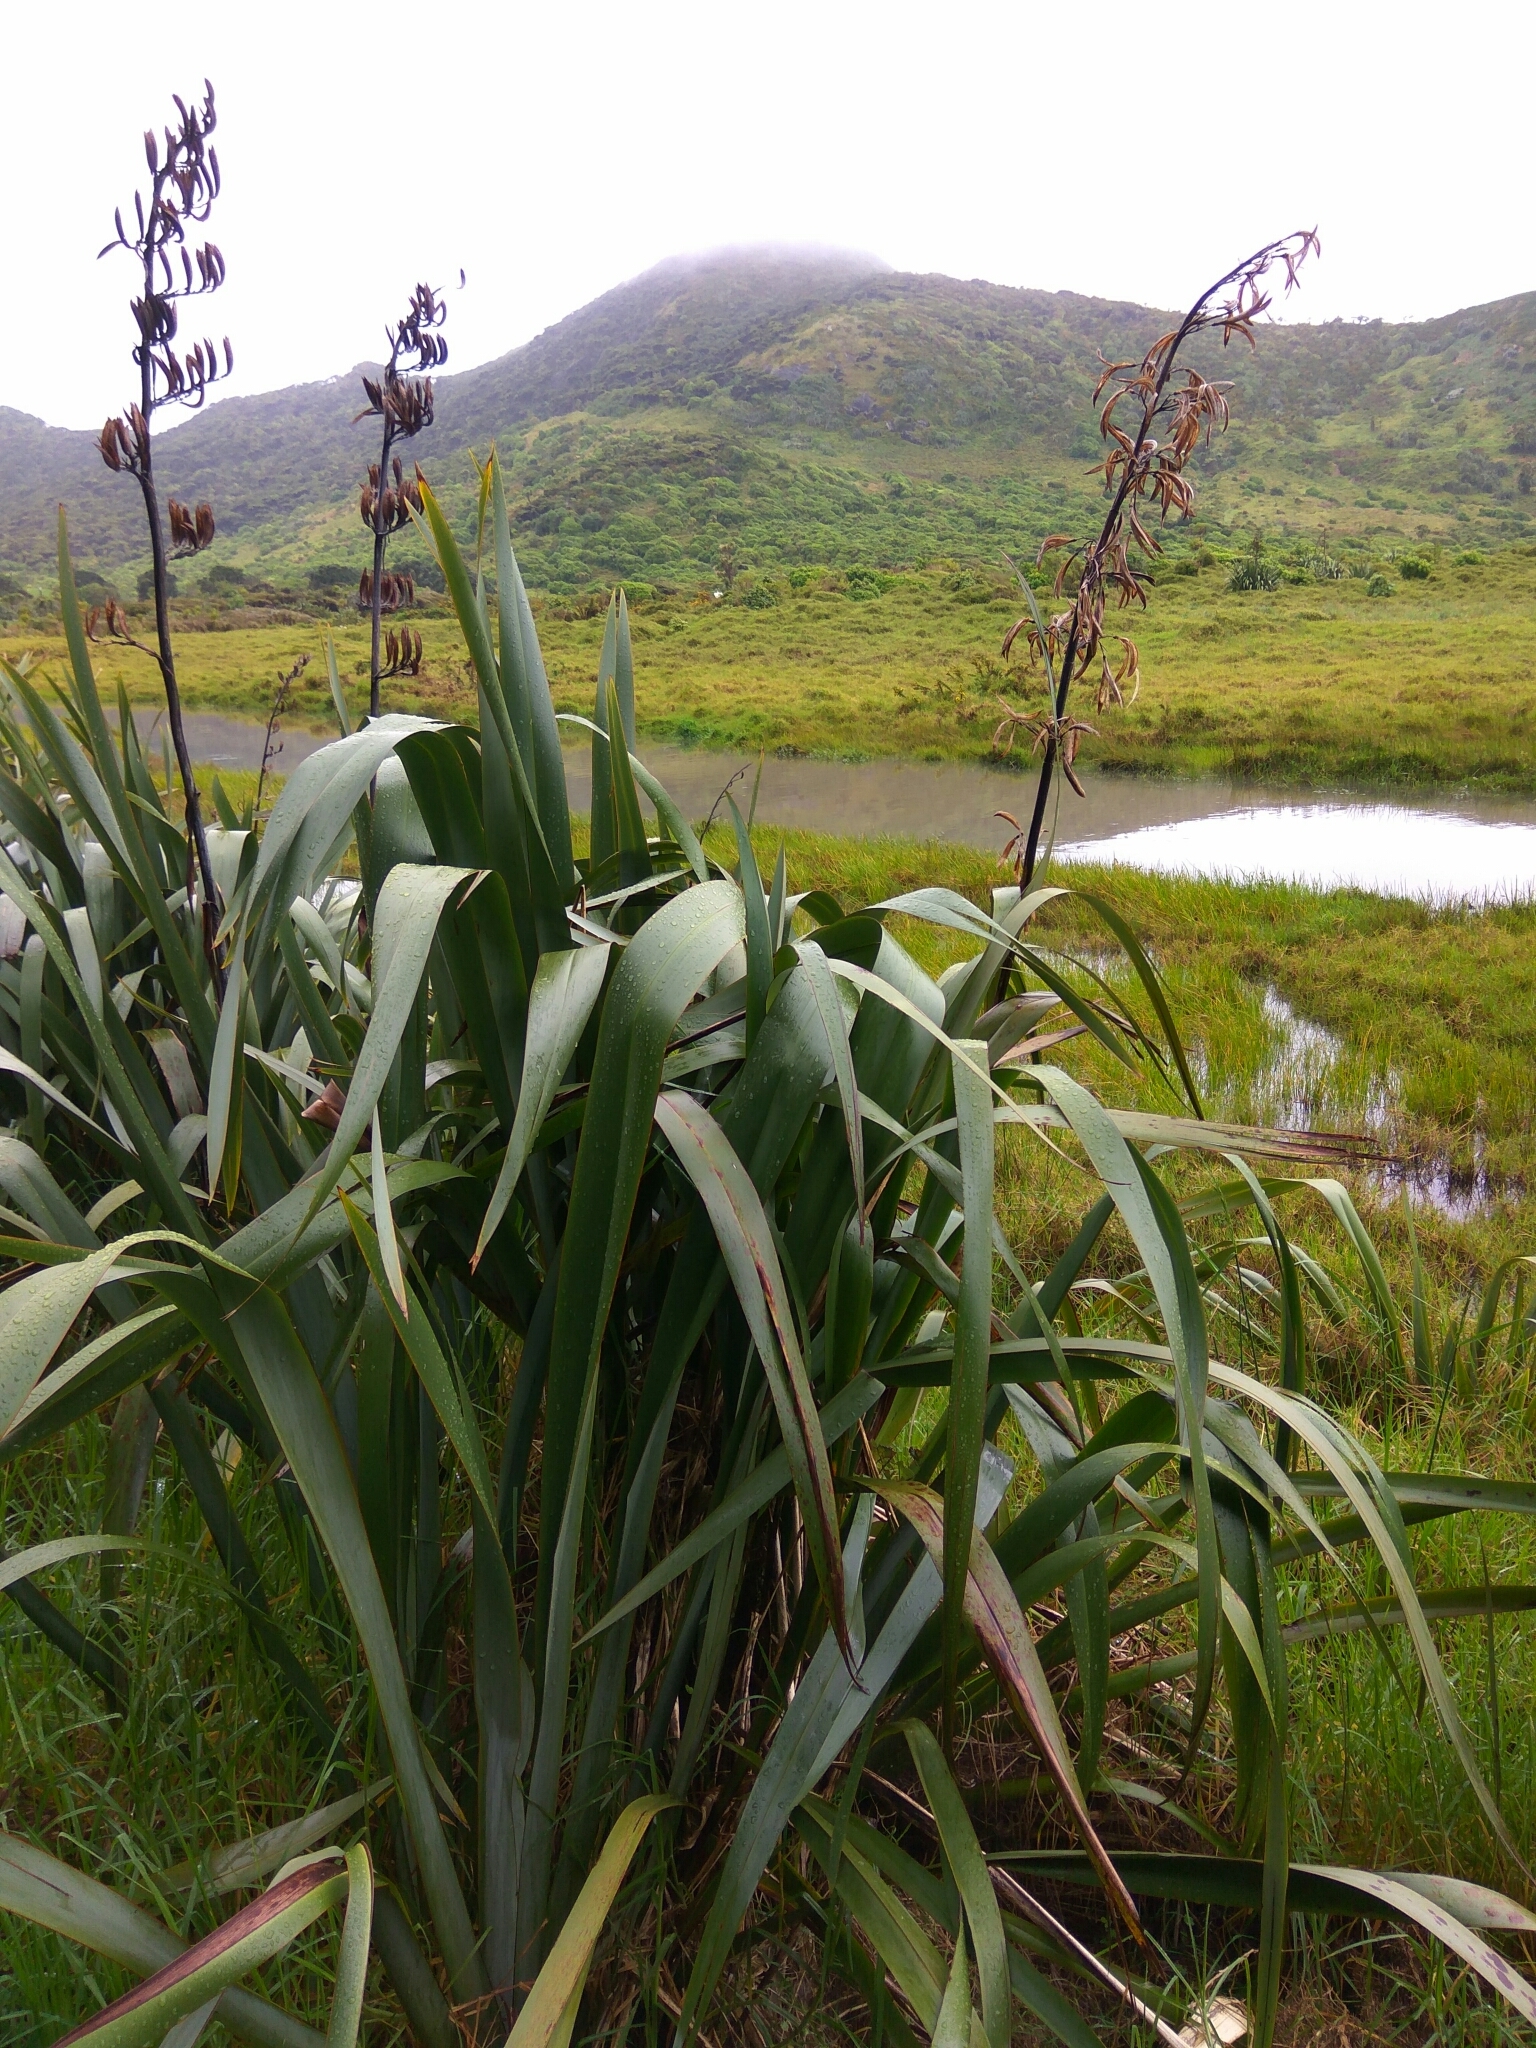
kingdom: Plantae
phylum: Tracheophyta
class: Liliopsida
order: Asparagales
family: Asphodelaceae
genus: Phormium
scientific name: Phormium tenax
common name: New zealand flax
